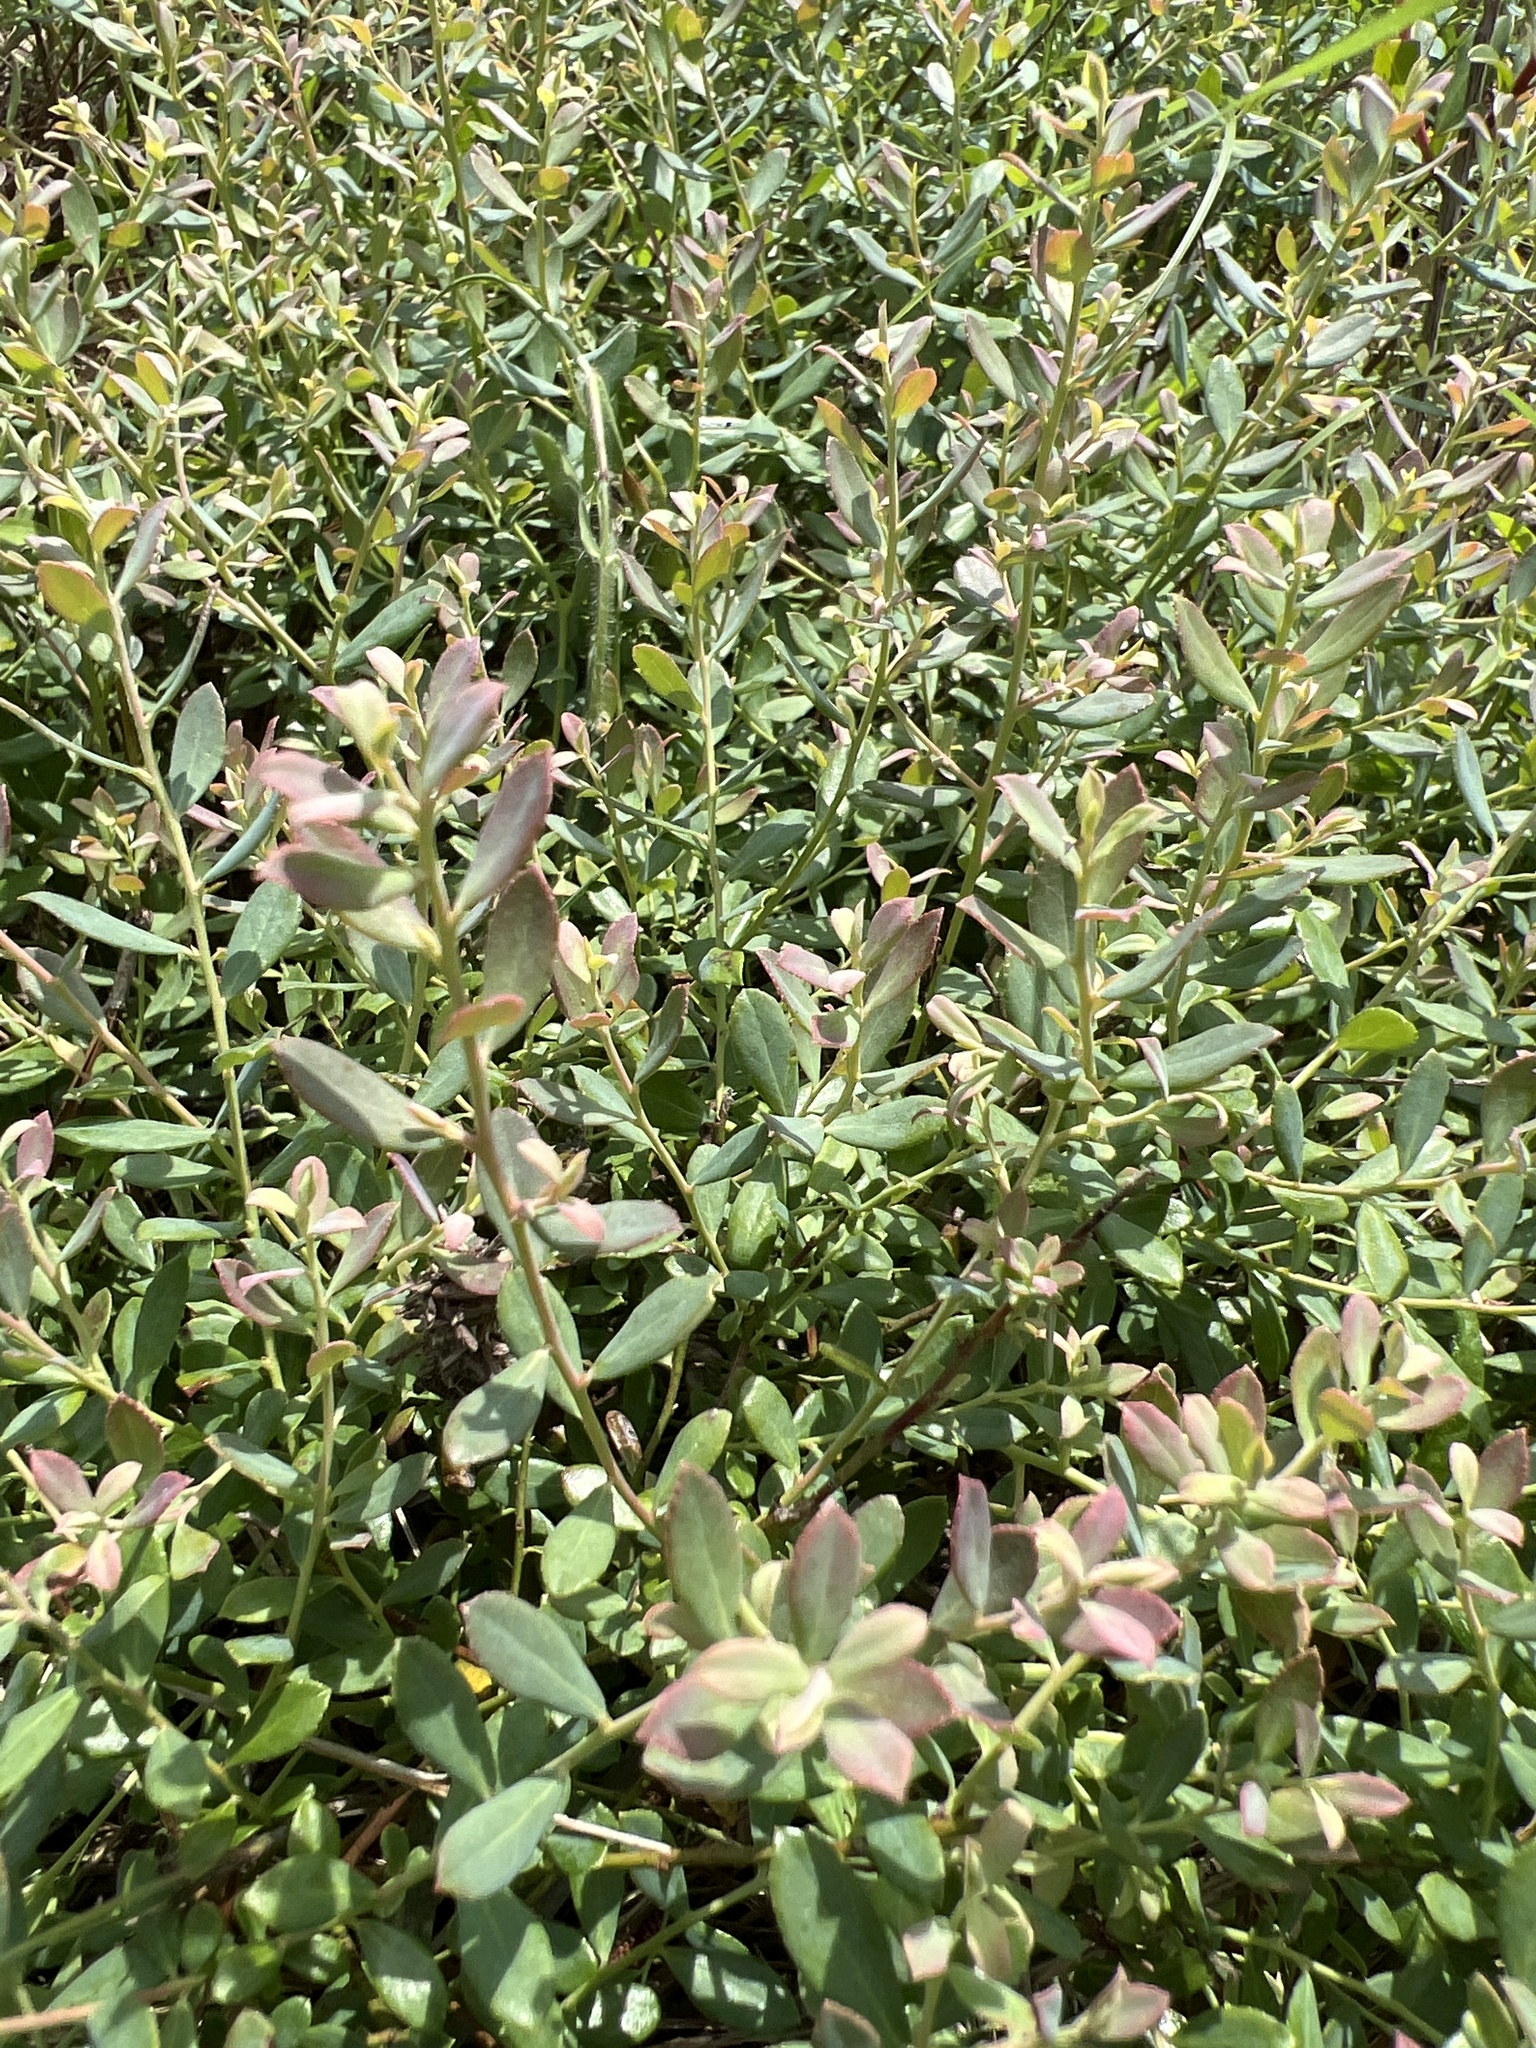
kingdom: Plantae
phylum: Tracheophyta
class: Magnoliopsida
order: Ericales
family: Ericaceae
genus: Vaccinium
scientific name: Vaccinium darrowii
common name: Darrow's blueberry
